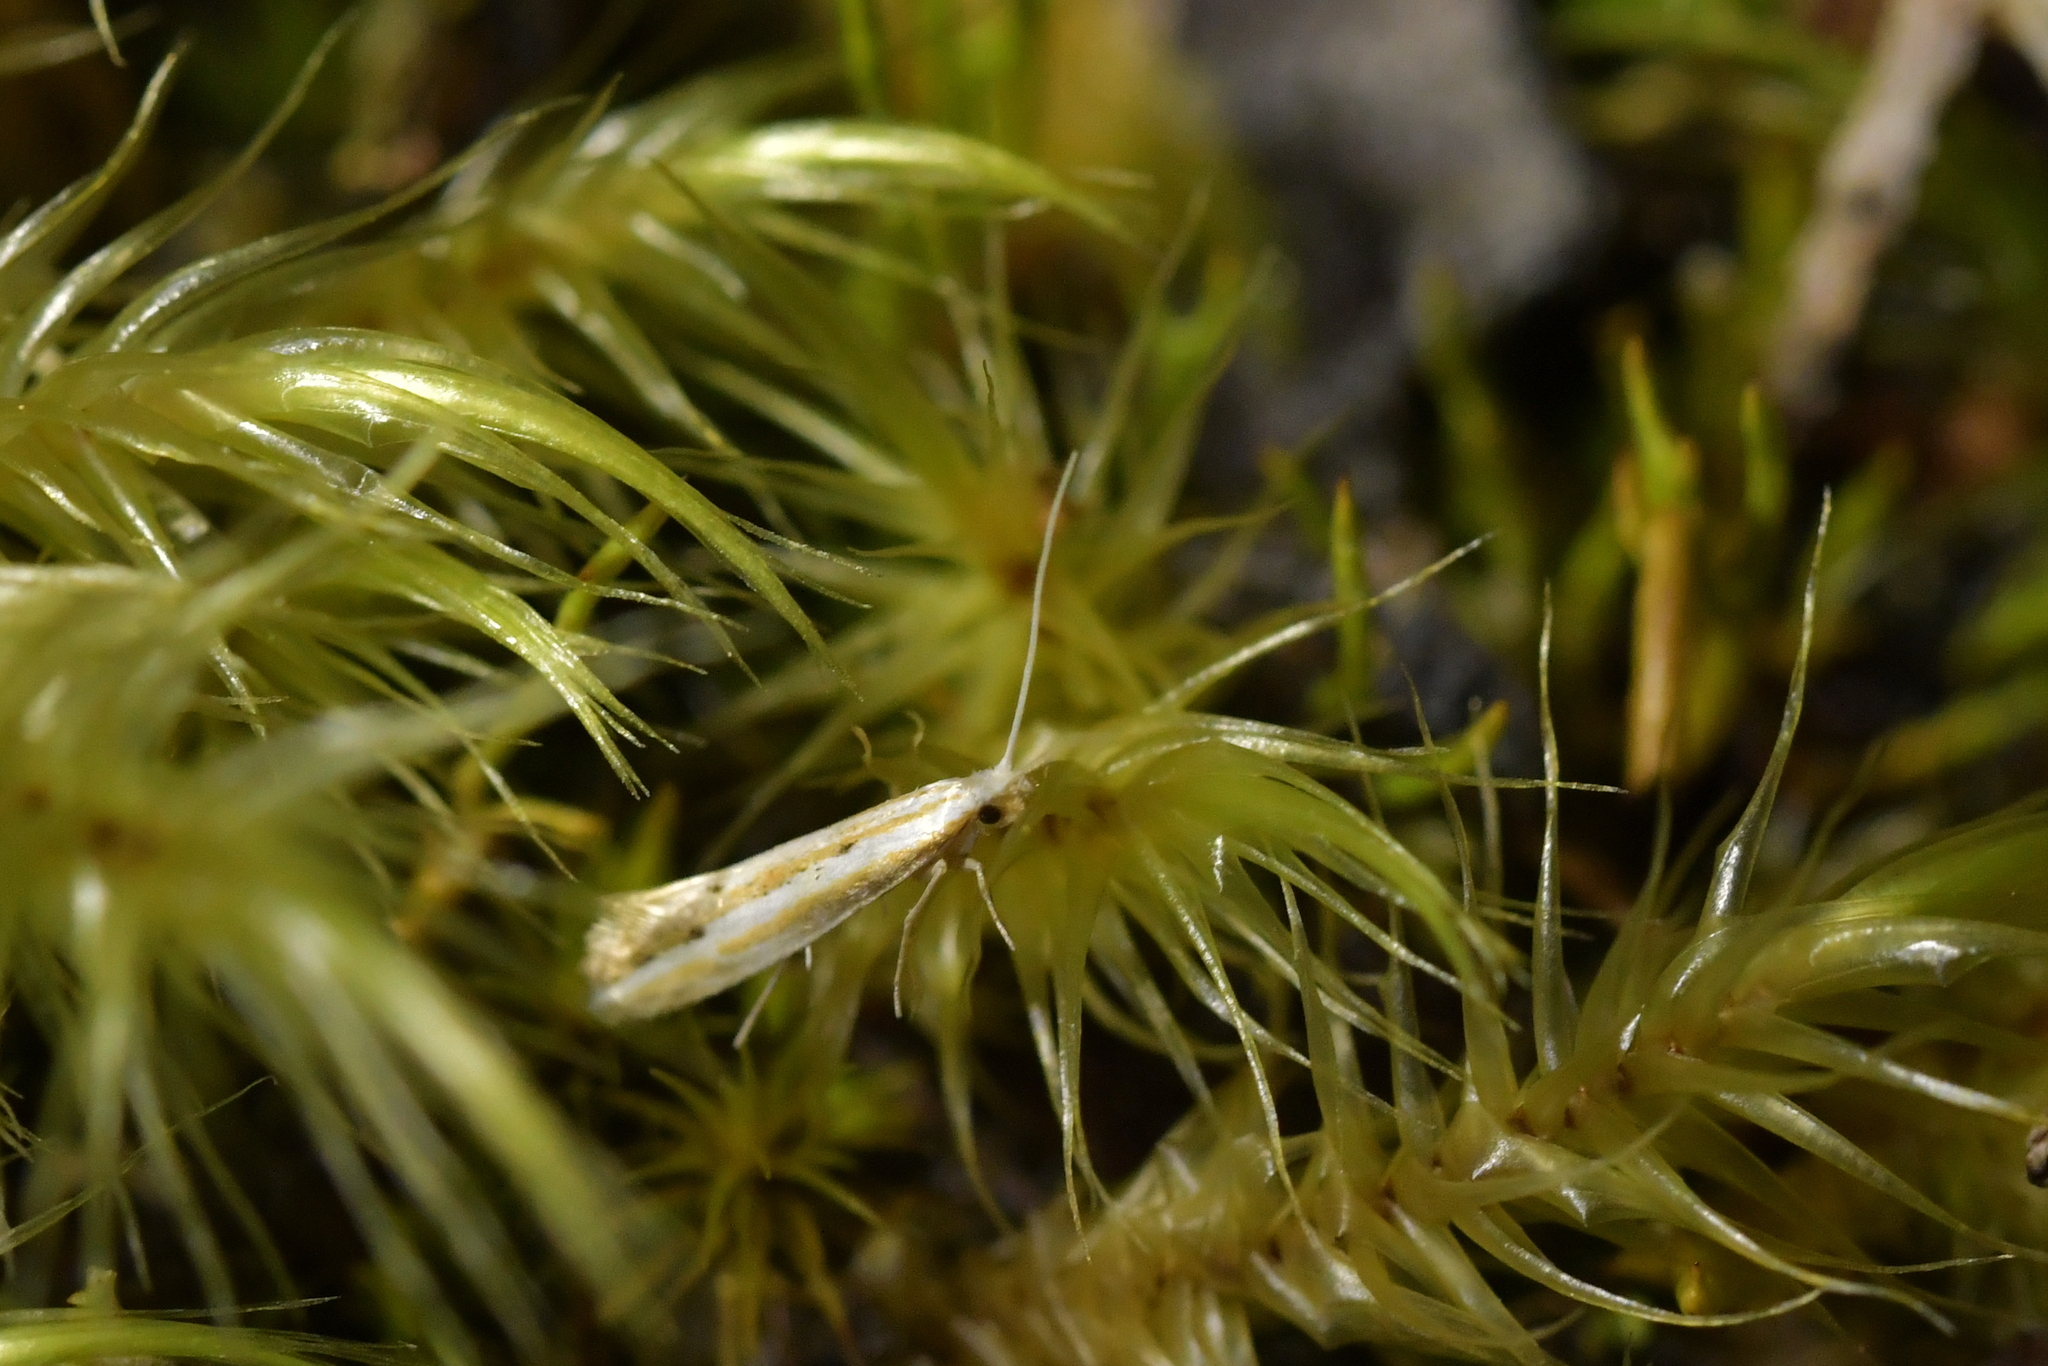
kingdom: Animalia
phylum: Arthropoda
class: Insecta
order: Lepidoptera
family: Tineidae
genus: Sagephora
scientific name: Sagephora exsanguis
